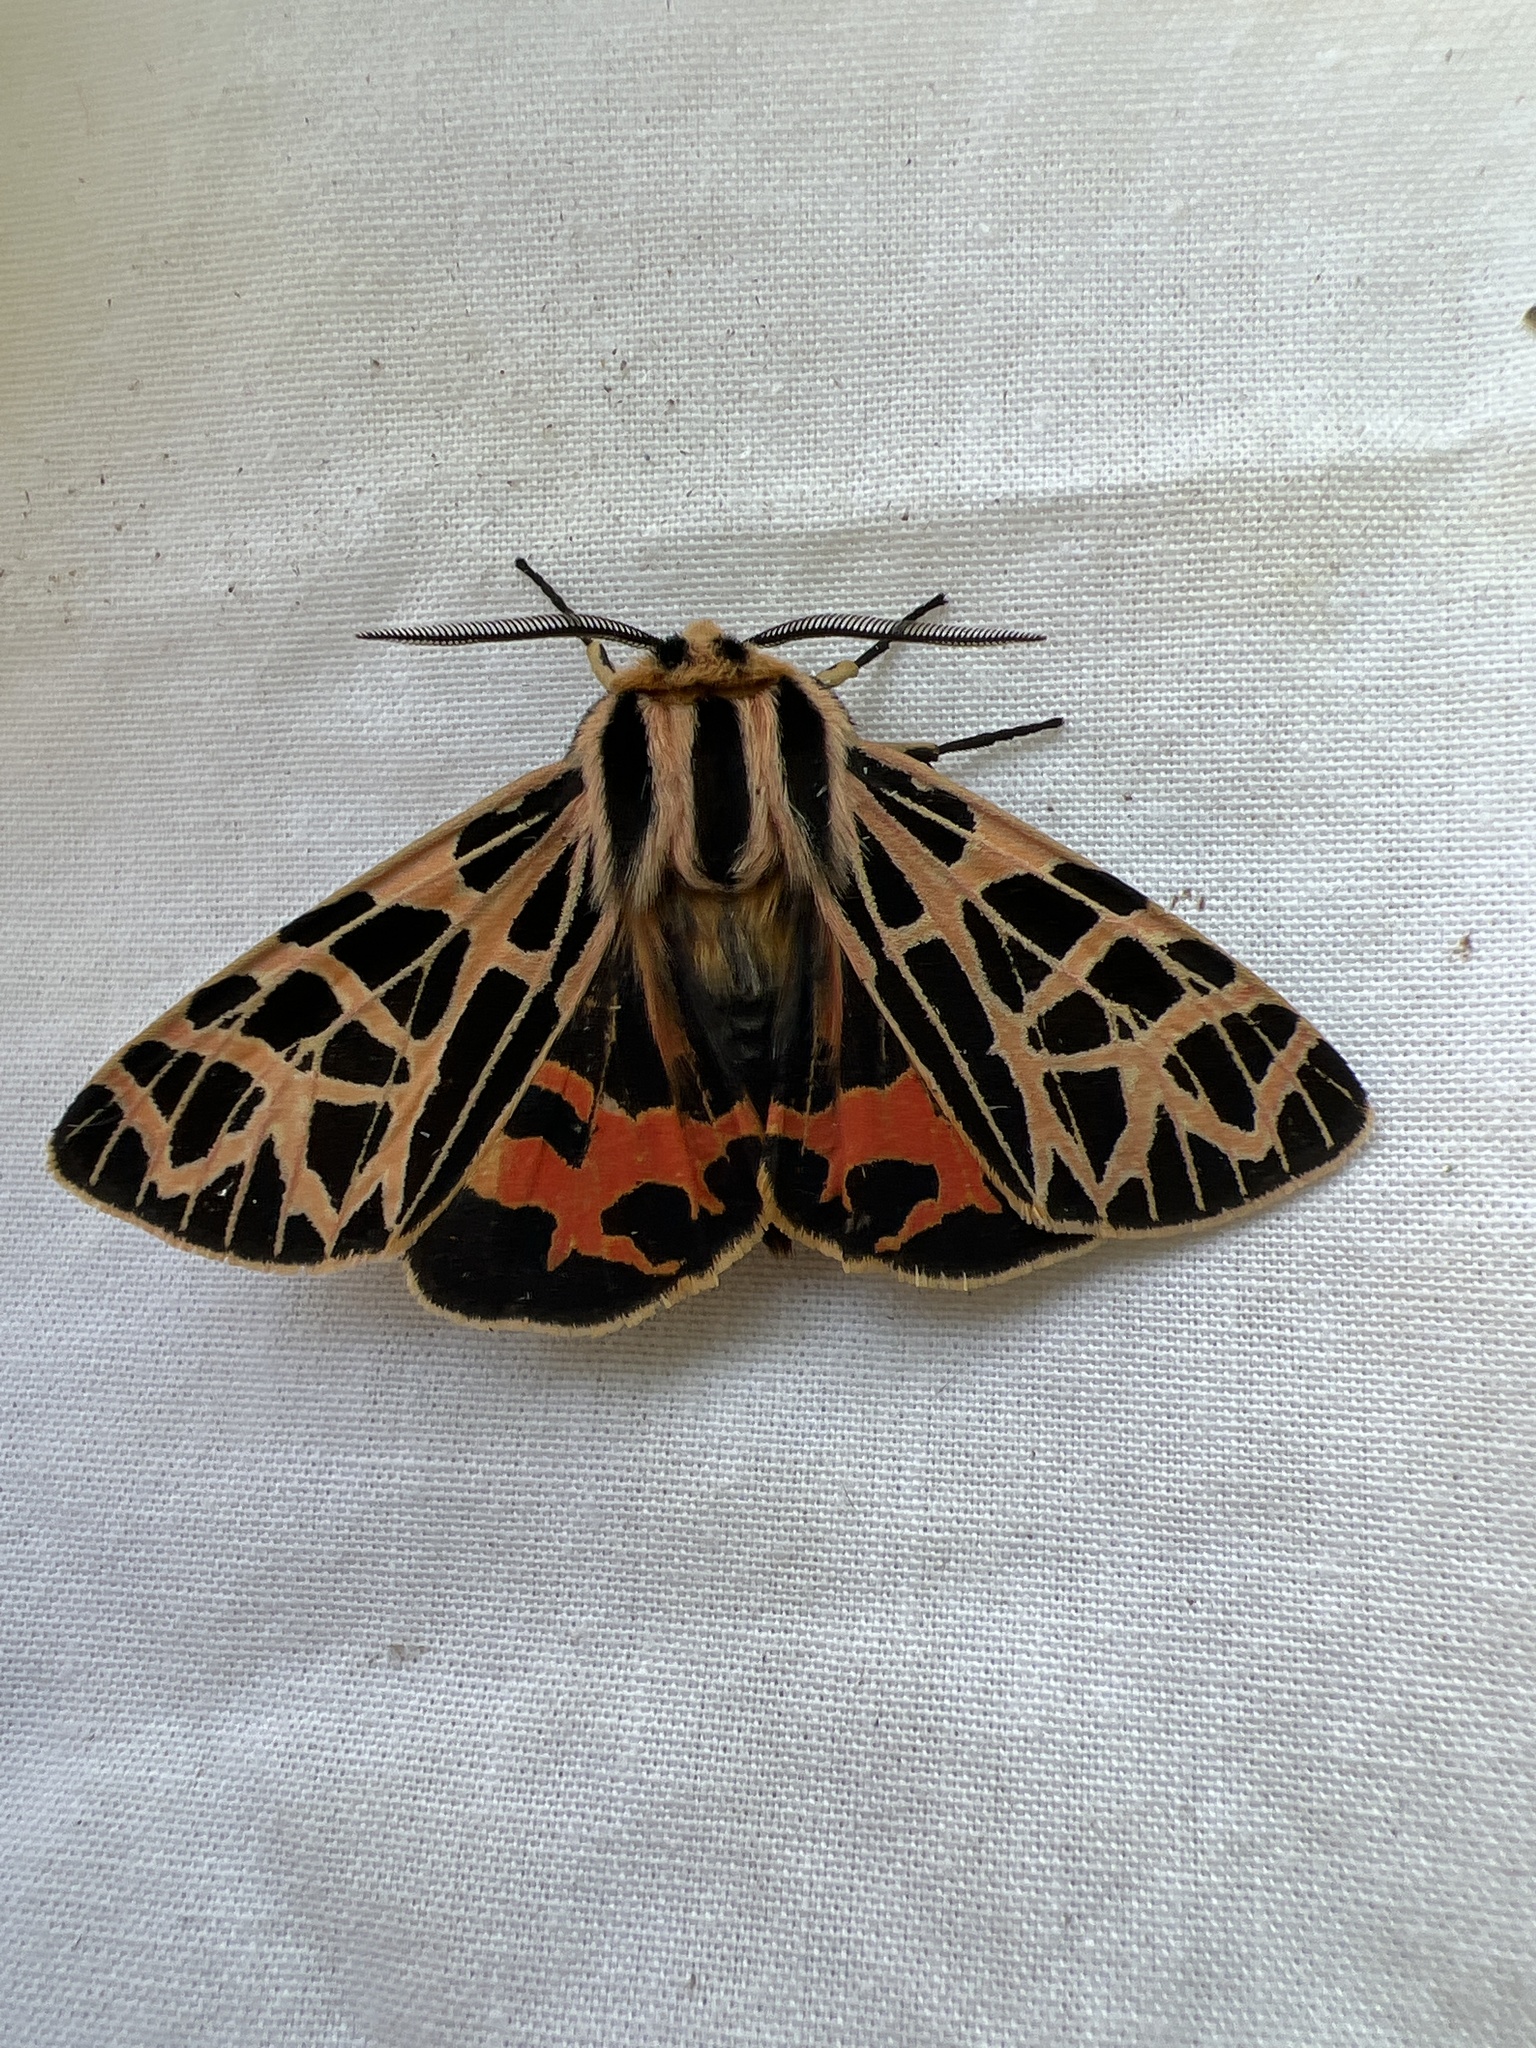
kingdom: Animalia
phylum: Arthropoda
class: Insecta
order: Lepidoptera
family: Erebidae
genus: Apantesis
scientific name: Apantesis
